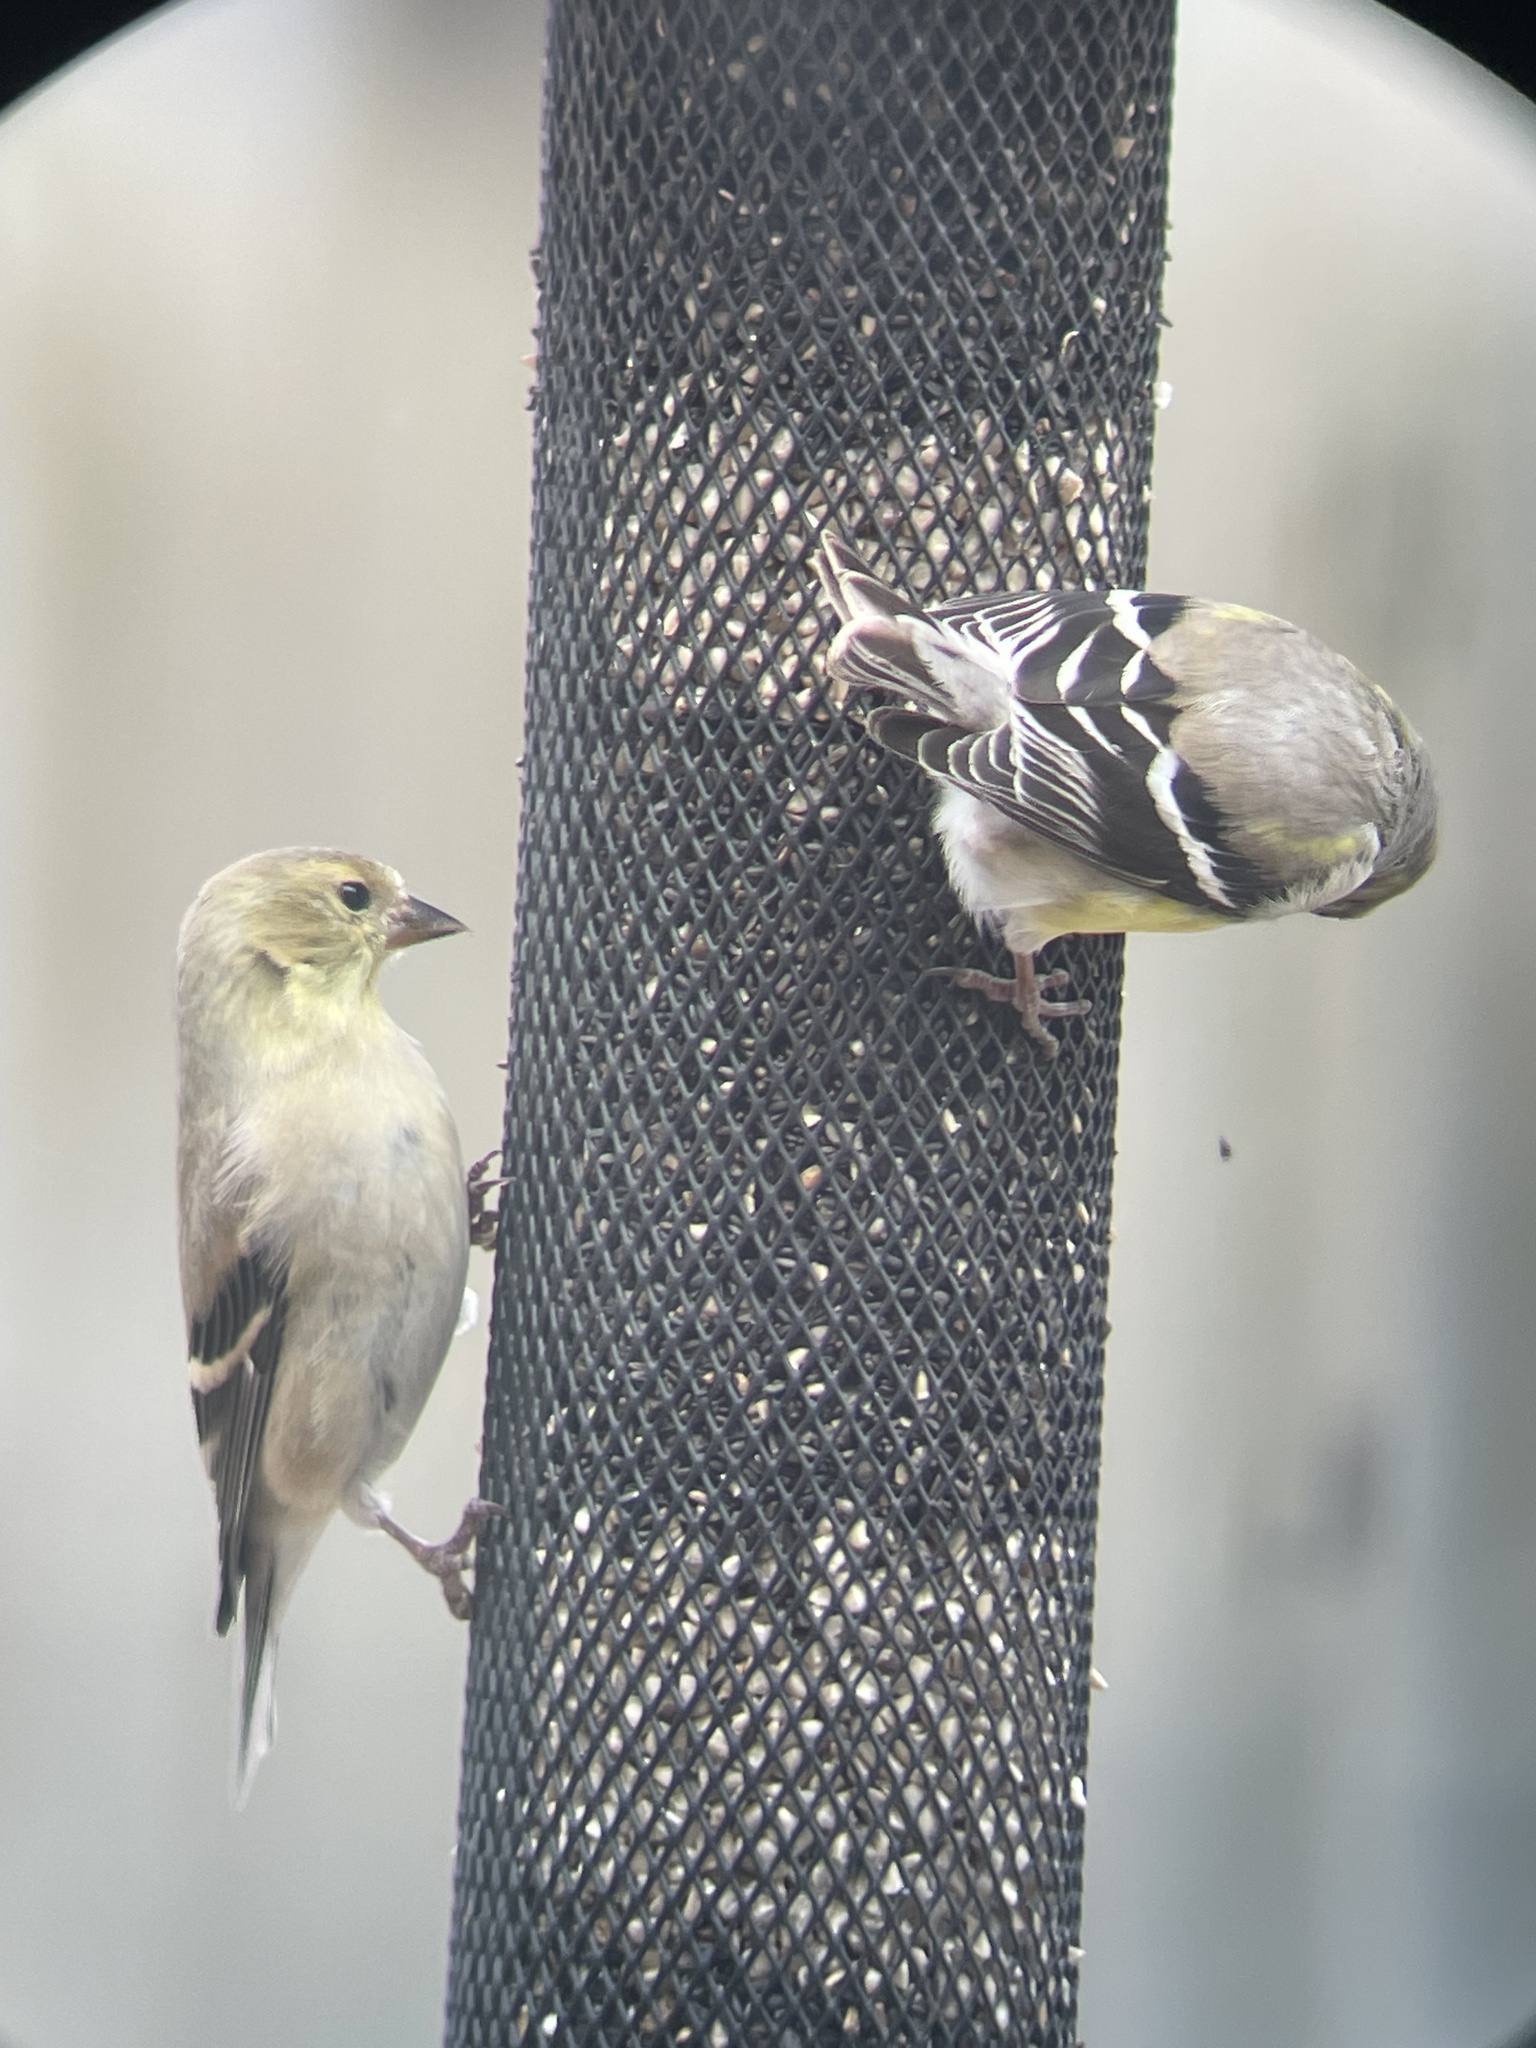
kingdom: Animalia
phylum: Chordata
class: Aves
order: Passeriformes
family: Fringillidae
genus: Spinus
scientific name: Spinus tristis
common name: American goldfinch
